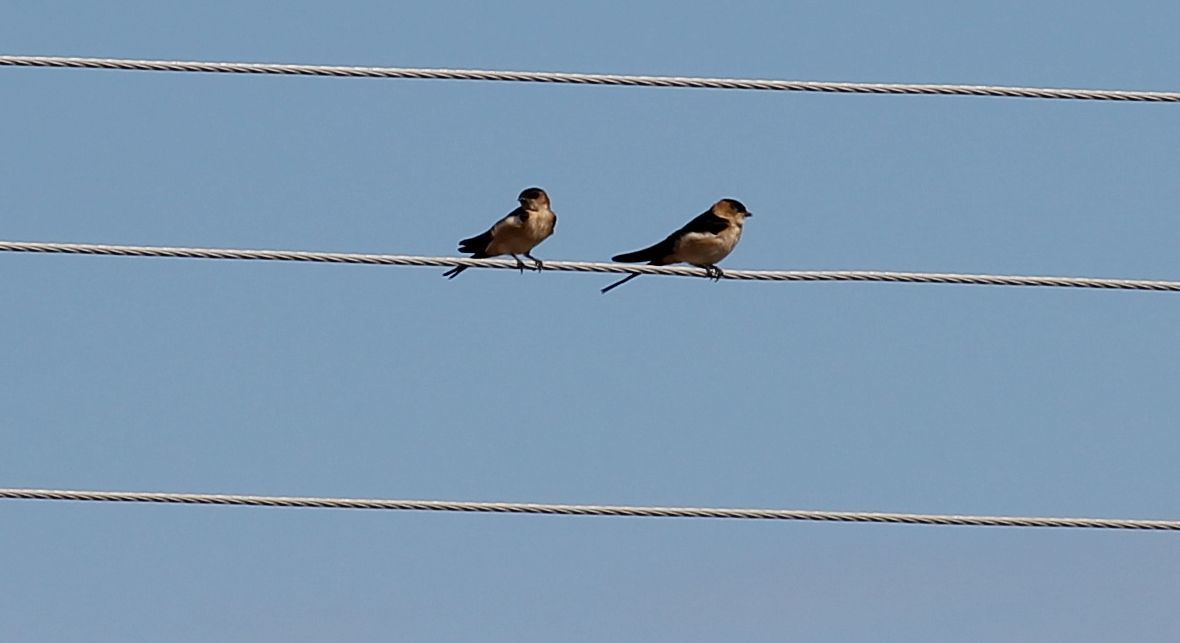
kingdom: Animalia
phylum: Chordata
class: Aves
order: Passeriformes
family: Hirundinidae
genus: Cecropis
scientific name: Cecropis daurica
